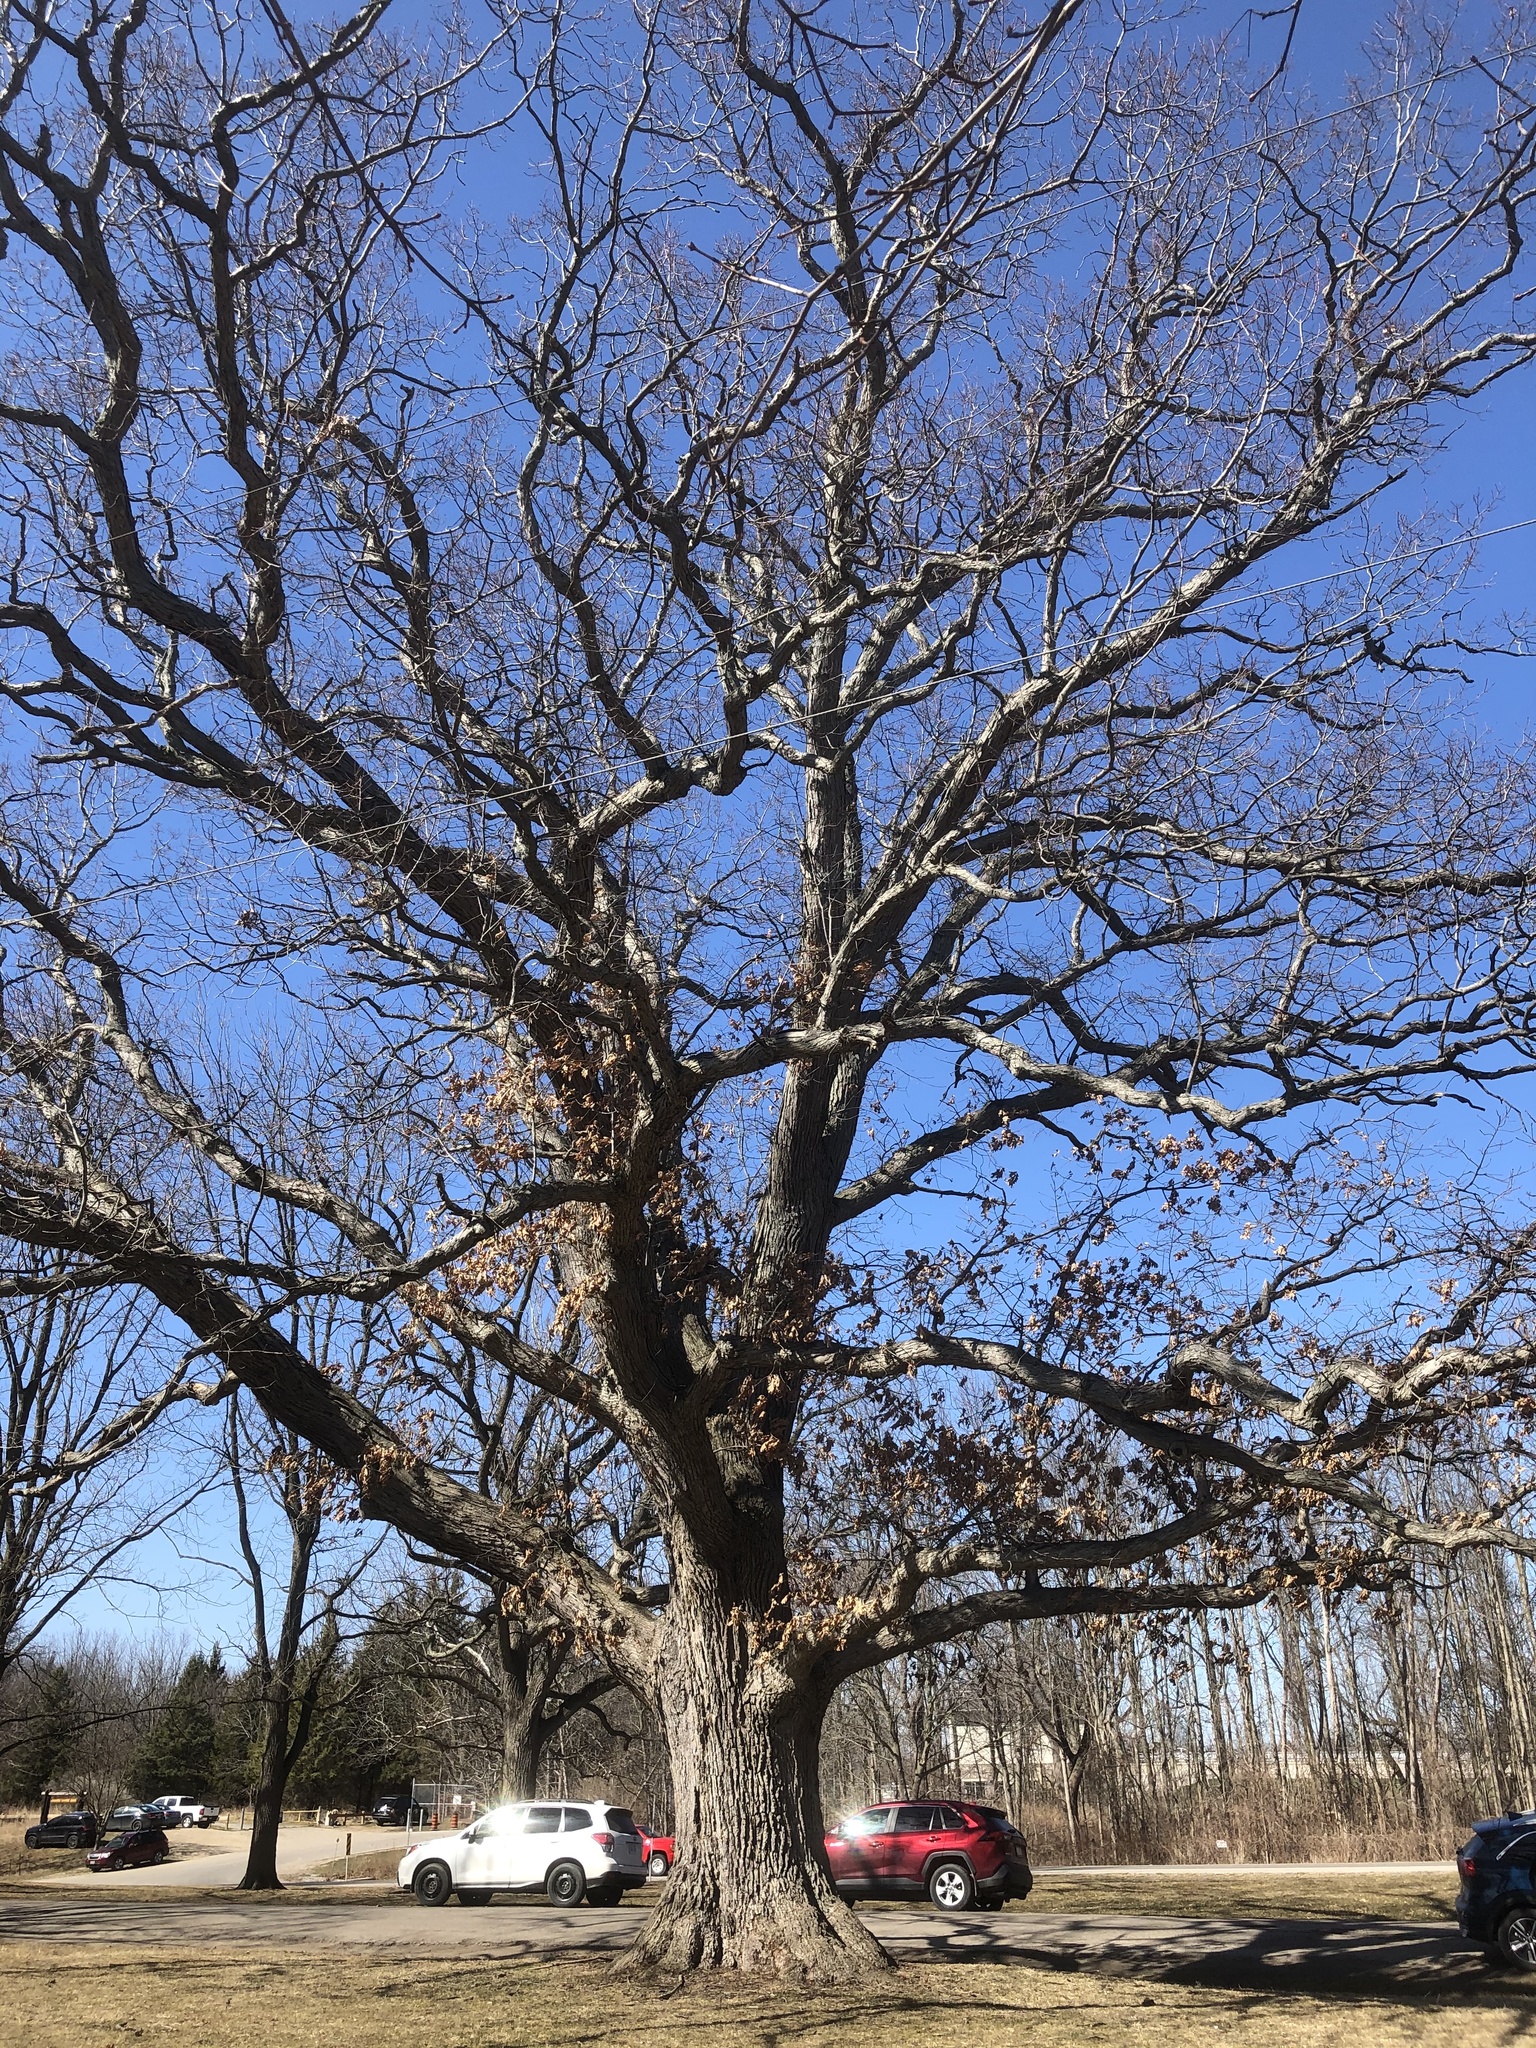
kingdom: Plantae
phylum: Tracheophyta
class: Magnoliopsida
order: Fagales
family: Fagaceae
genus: Quercus
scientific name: Quercus alba
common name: White oak
